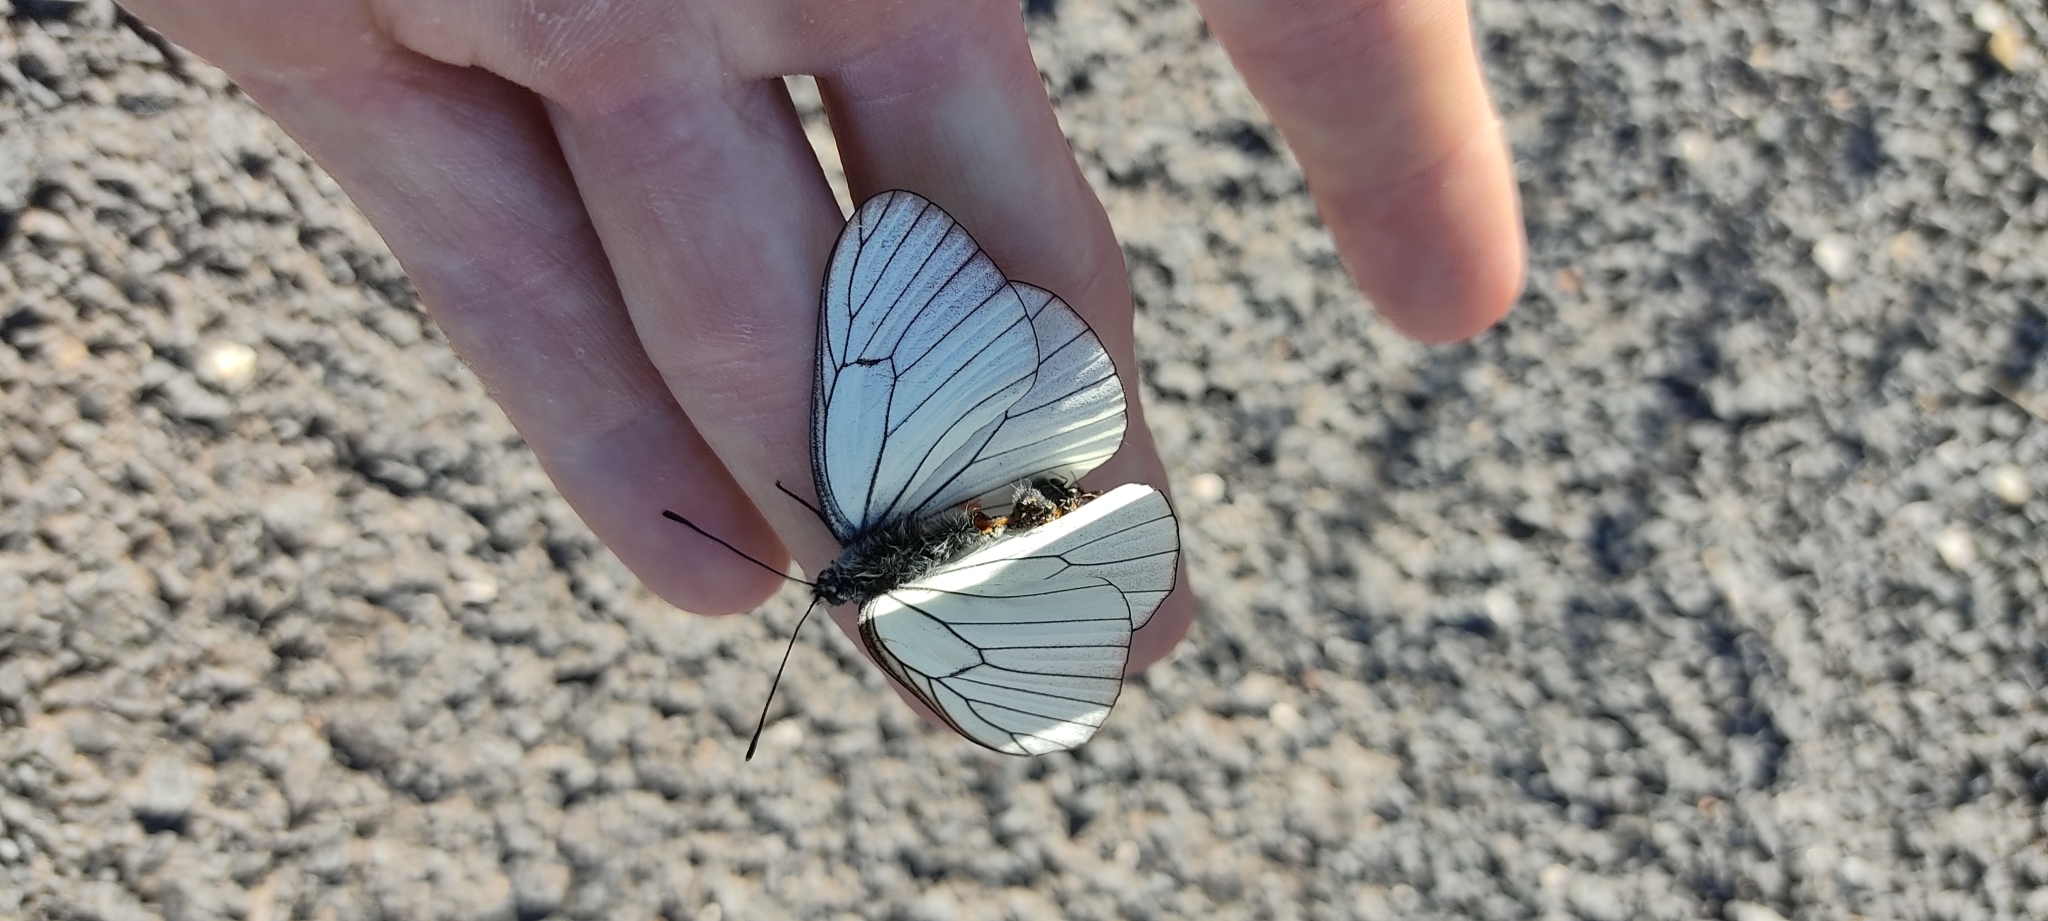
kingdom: Animalia
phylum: Arthropoda
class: Insecta
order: Lepidoptera
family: Pieridae
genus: Aporia
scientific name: Aporia crataegi
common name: Black-veined white
